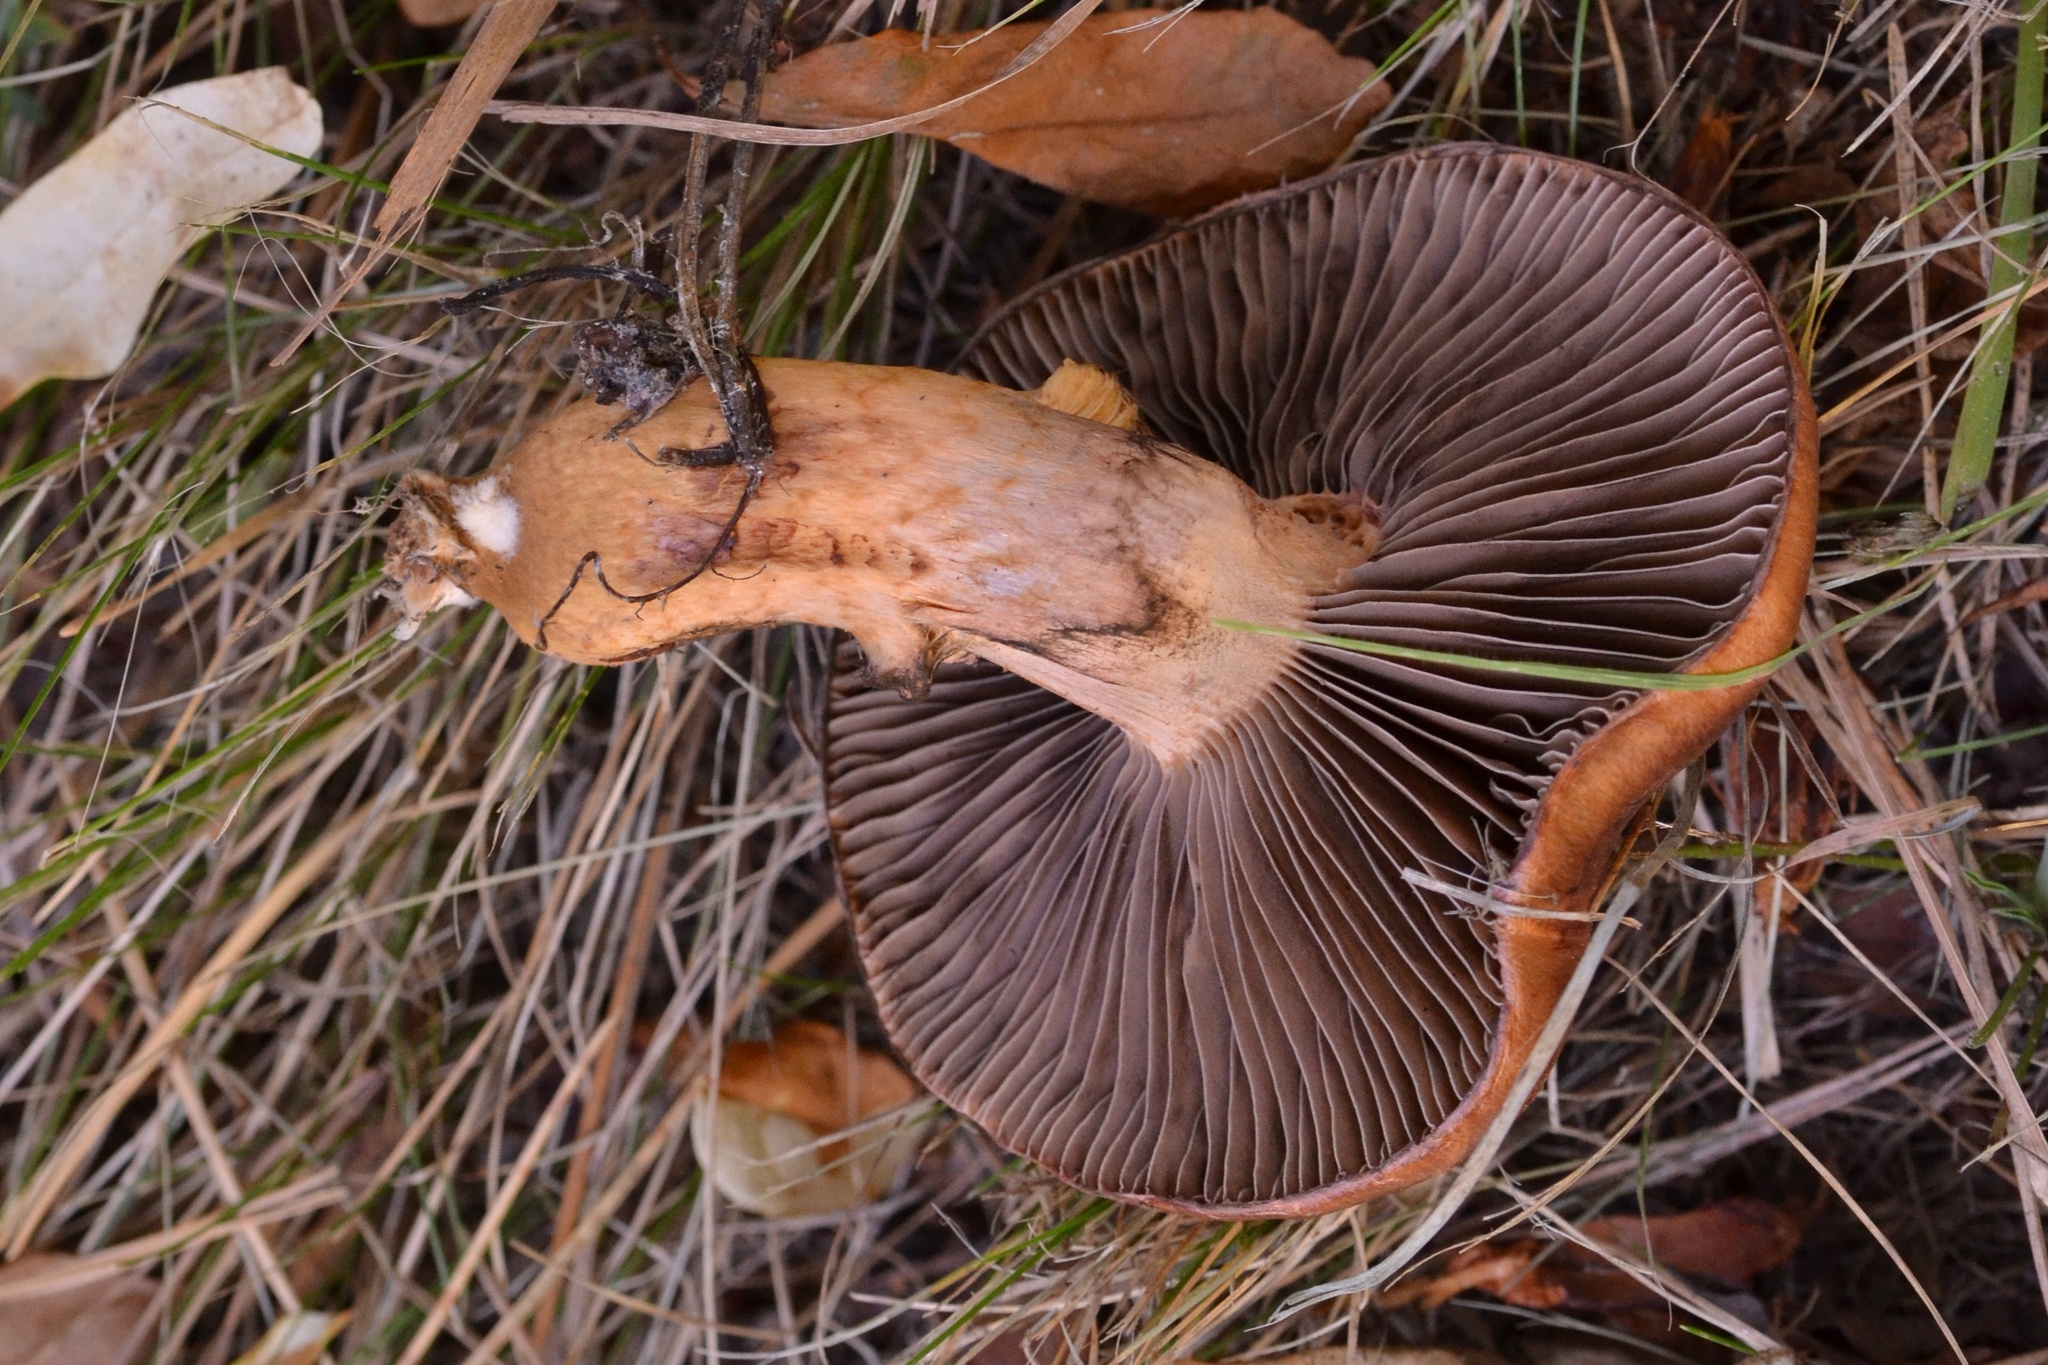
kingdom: Fungi
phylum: Basidiomycota
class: Agaricomycetes
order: Boletales
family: Gomphidiaceae
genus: Chroogomphus
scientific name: Chroogomphus rutilus
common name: Copper spike
